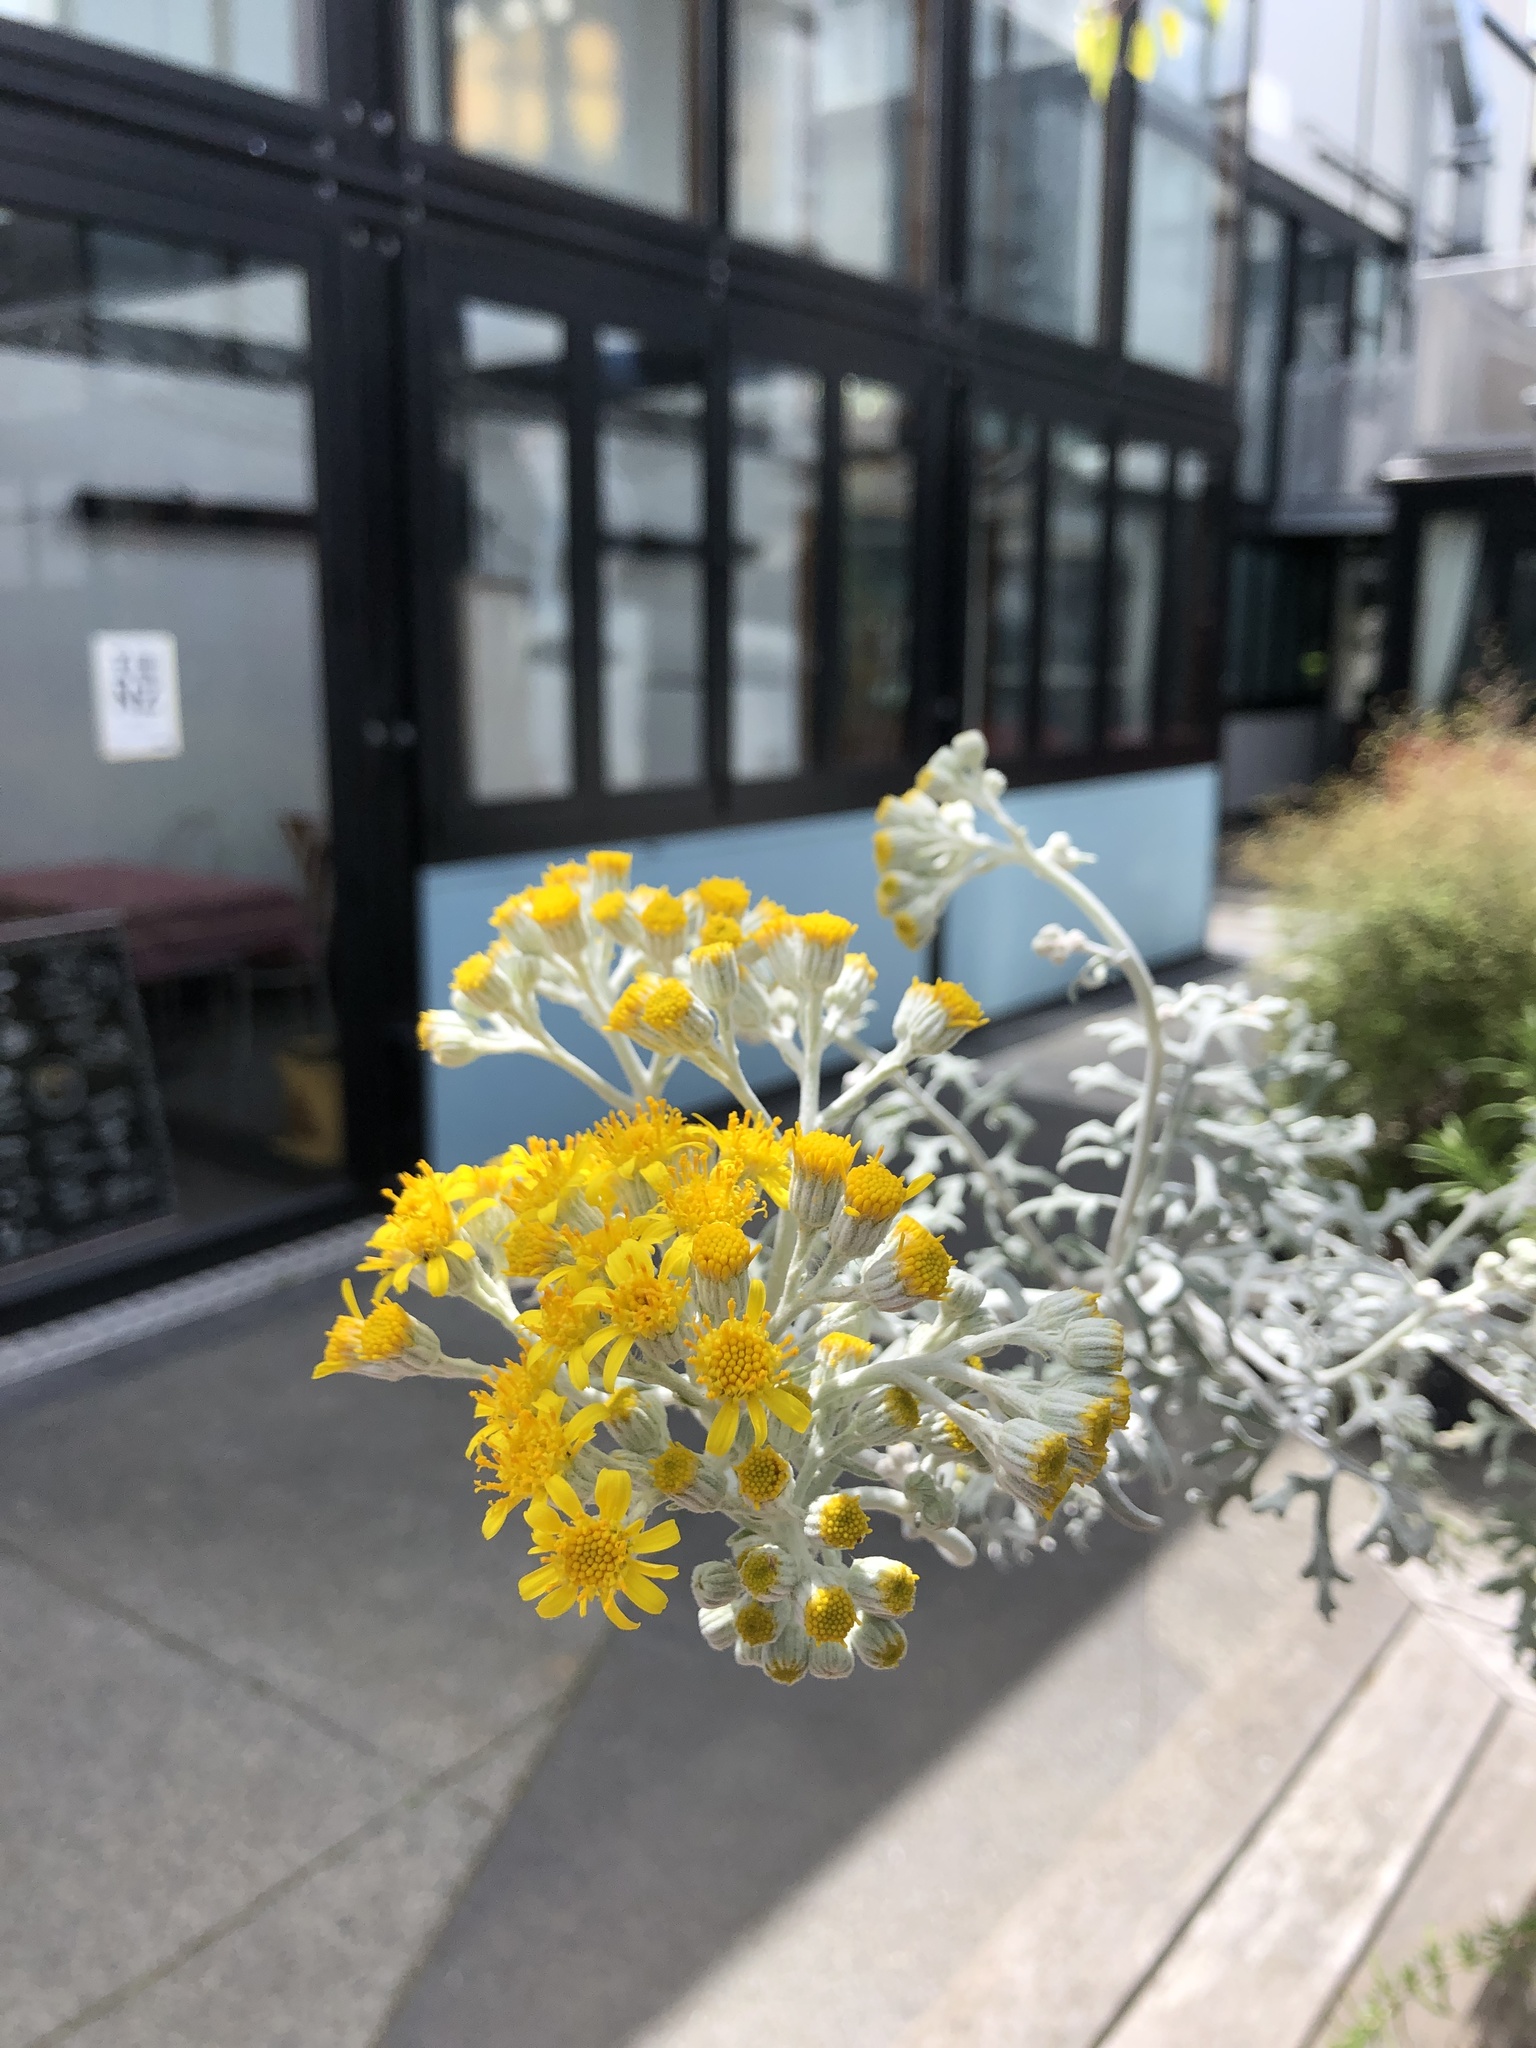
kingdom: Plantae
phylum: Tracheophyta
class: Magnoliopsida
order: Asterales
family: Asteraceae
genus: Jacobaea
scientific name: Jacobaea maritima
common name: Silver ragwort
